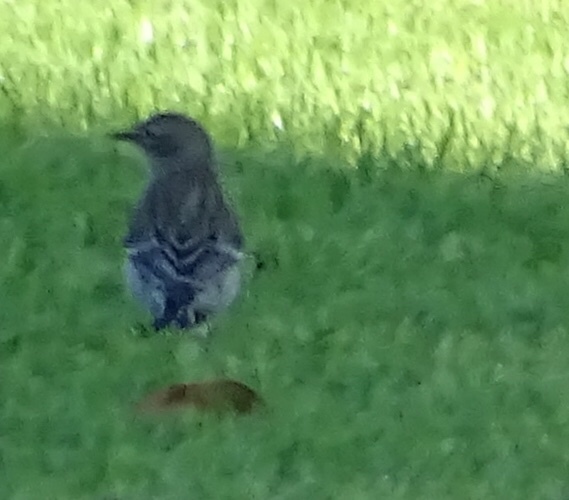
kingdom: Animalia
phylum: Chordata
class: Aves
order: Passeriformes
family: Parulidae
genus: Setophaga
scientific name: Setophaga coronata
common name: Myrtle warbler
